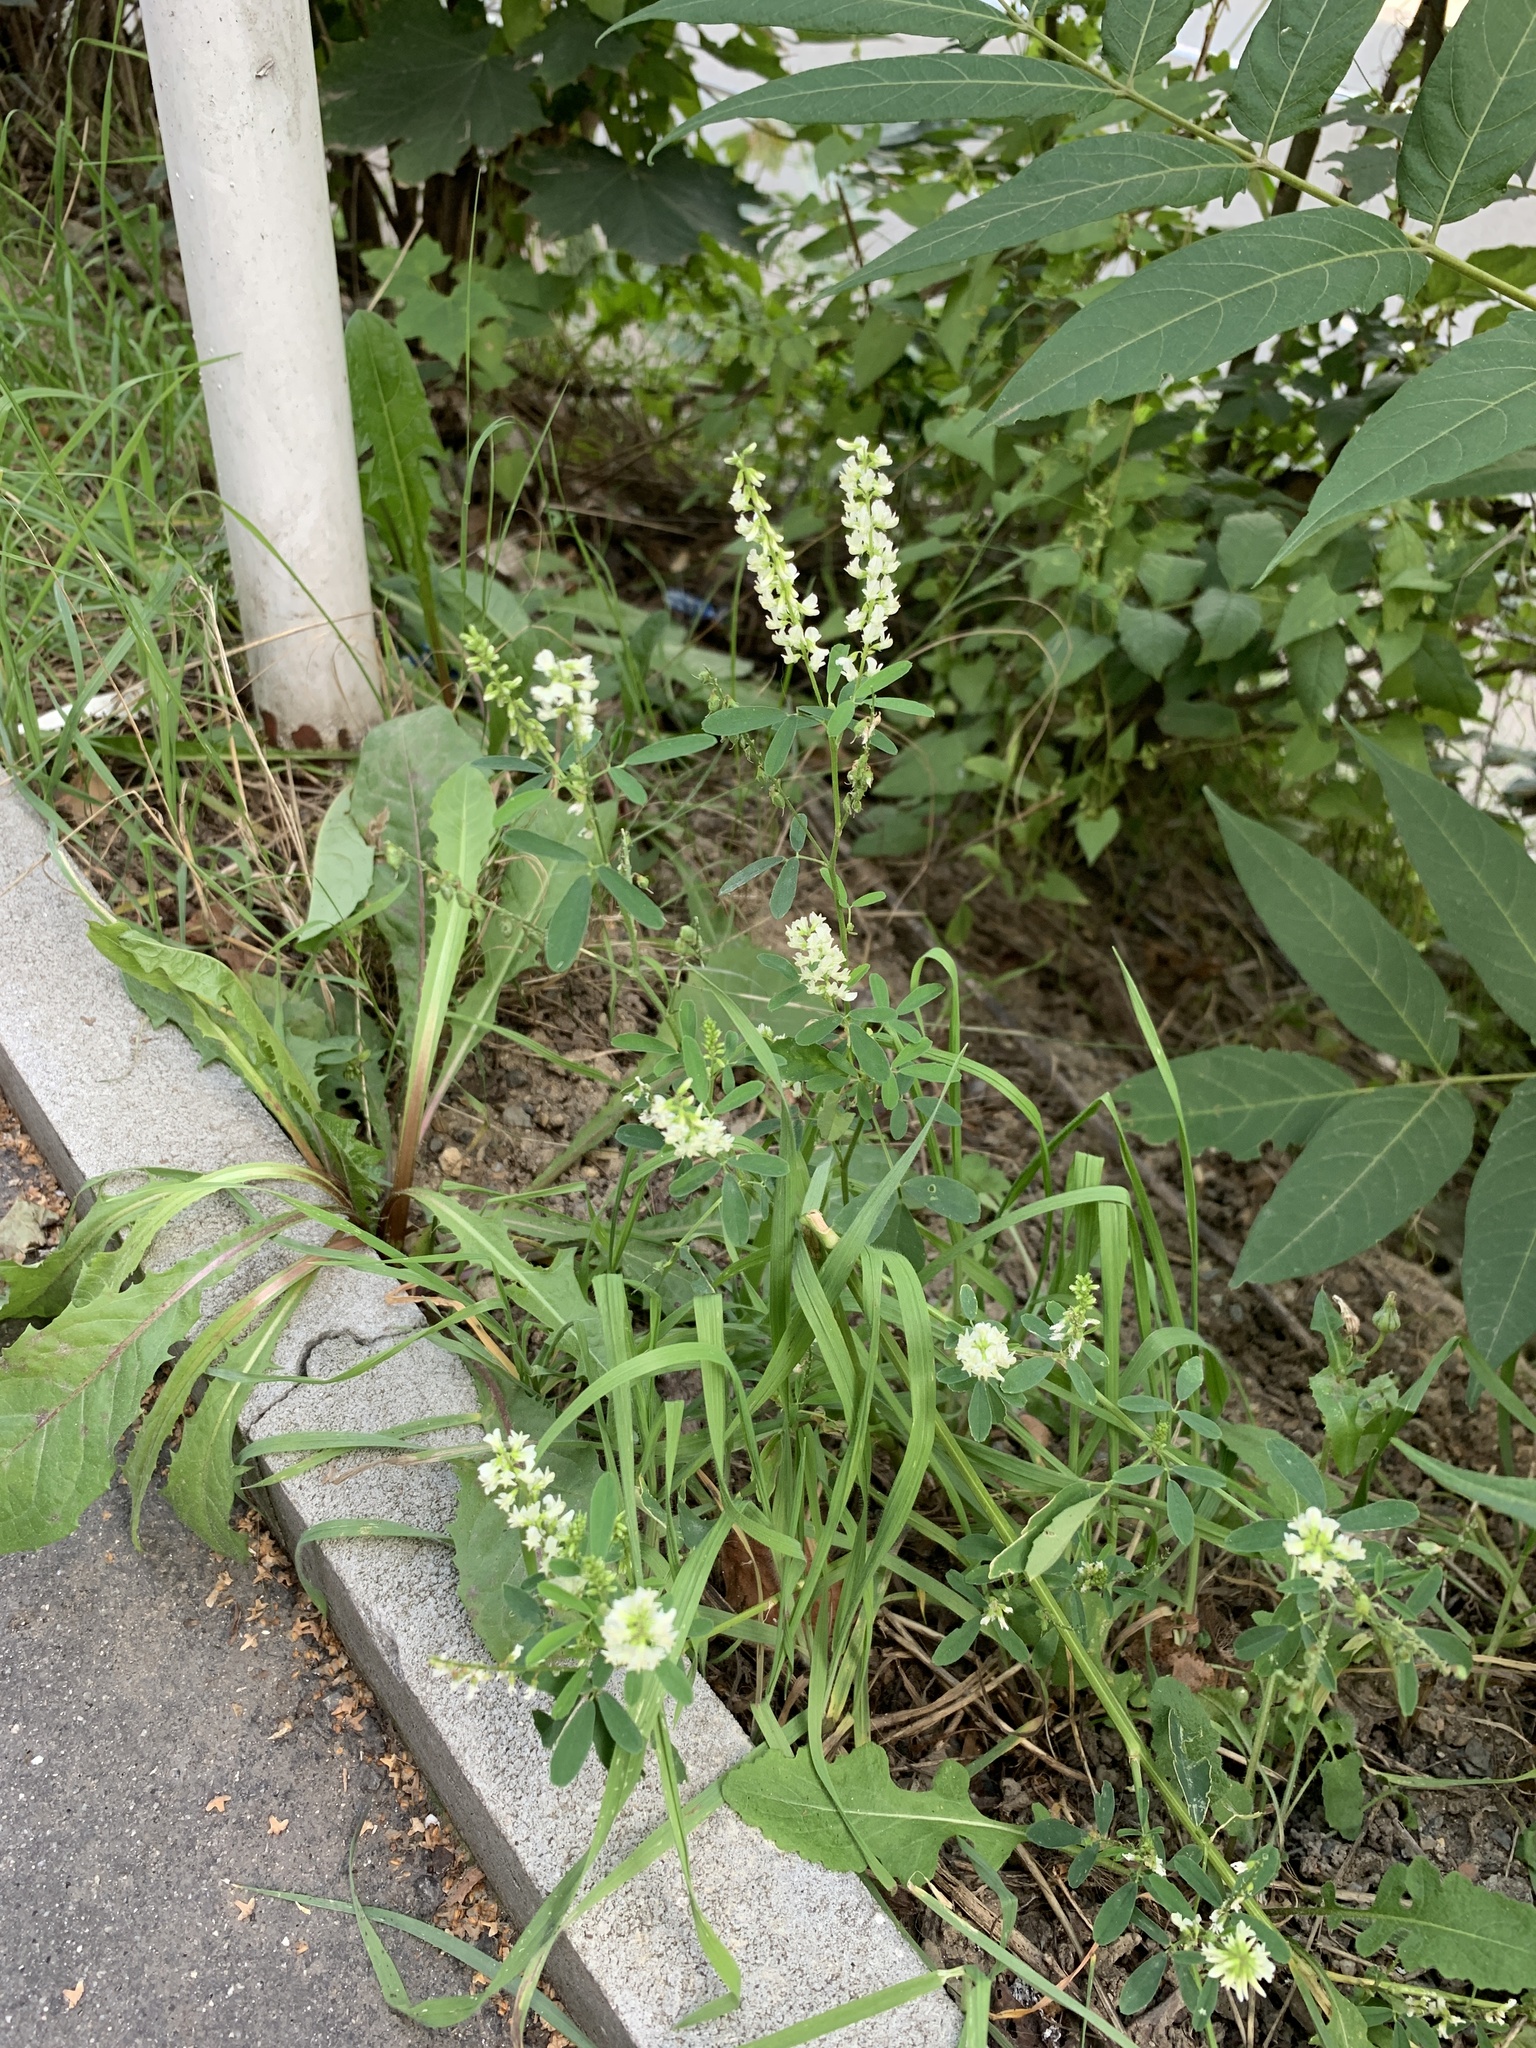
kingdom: Plantae
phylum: Tracheophyta
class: Magnoliopsida
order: Fabales
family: Fabaceae
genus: Melilotus
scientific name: Melilotus albus
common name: White melilot
